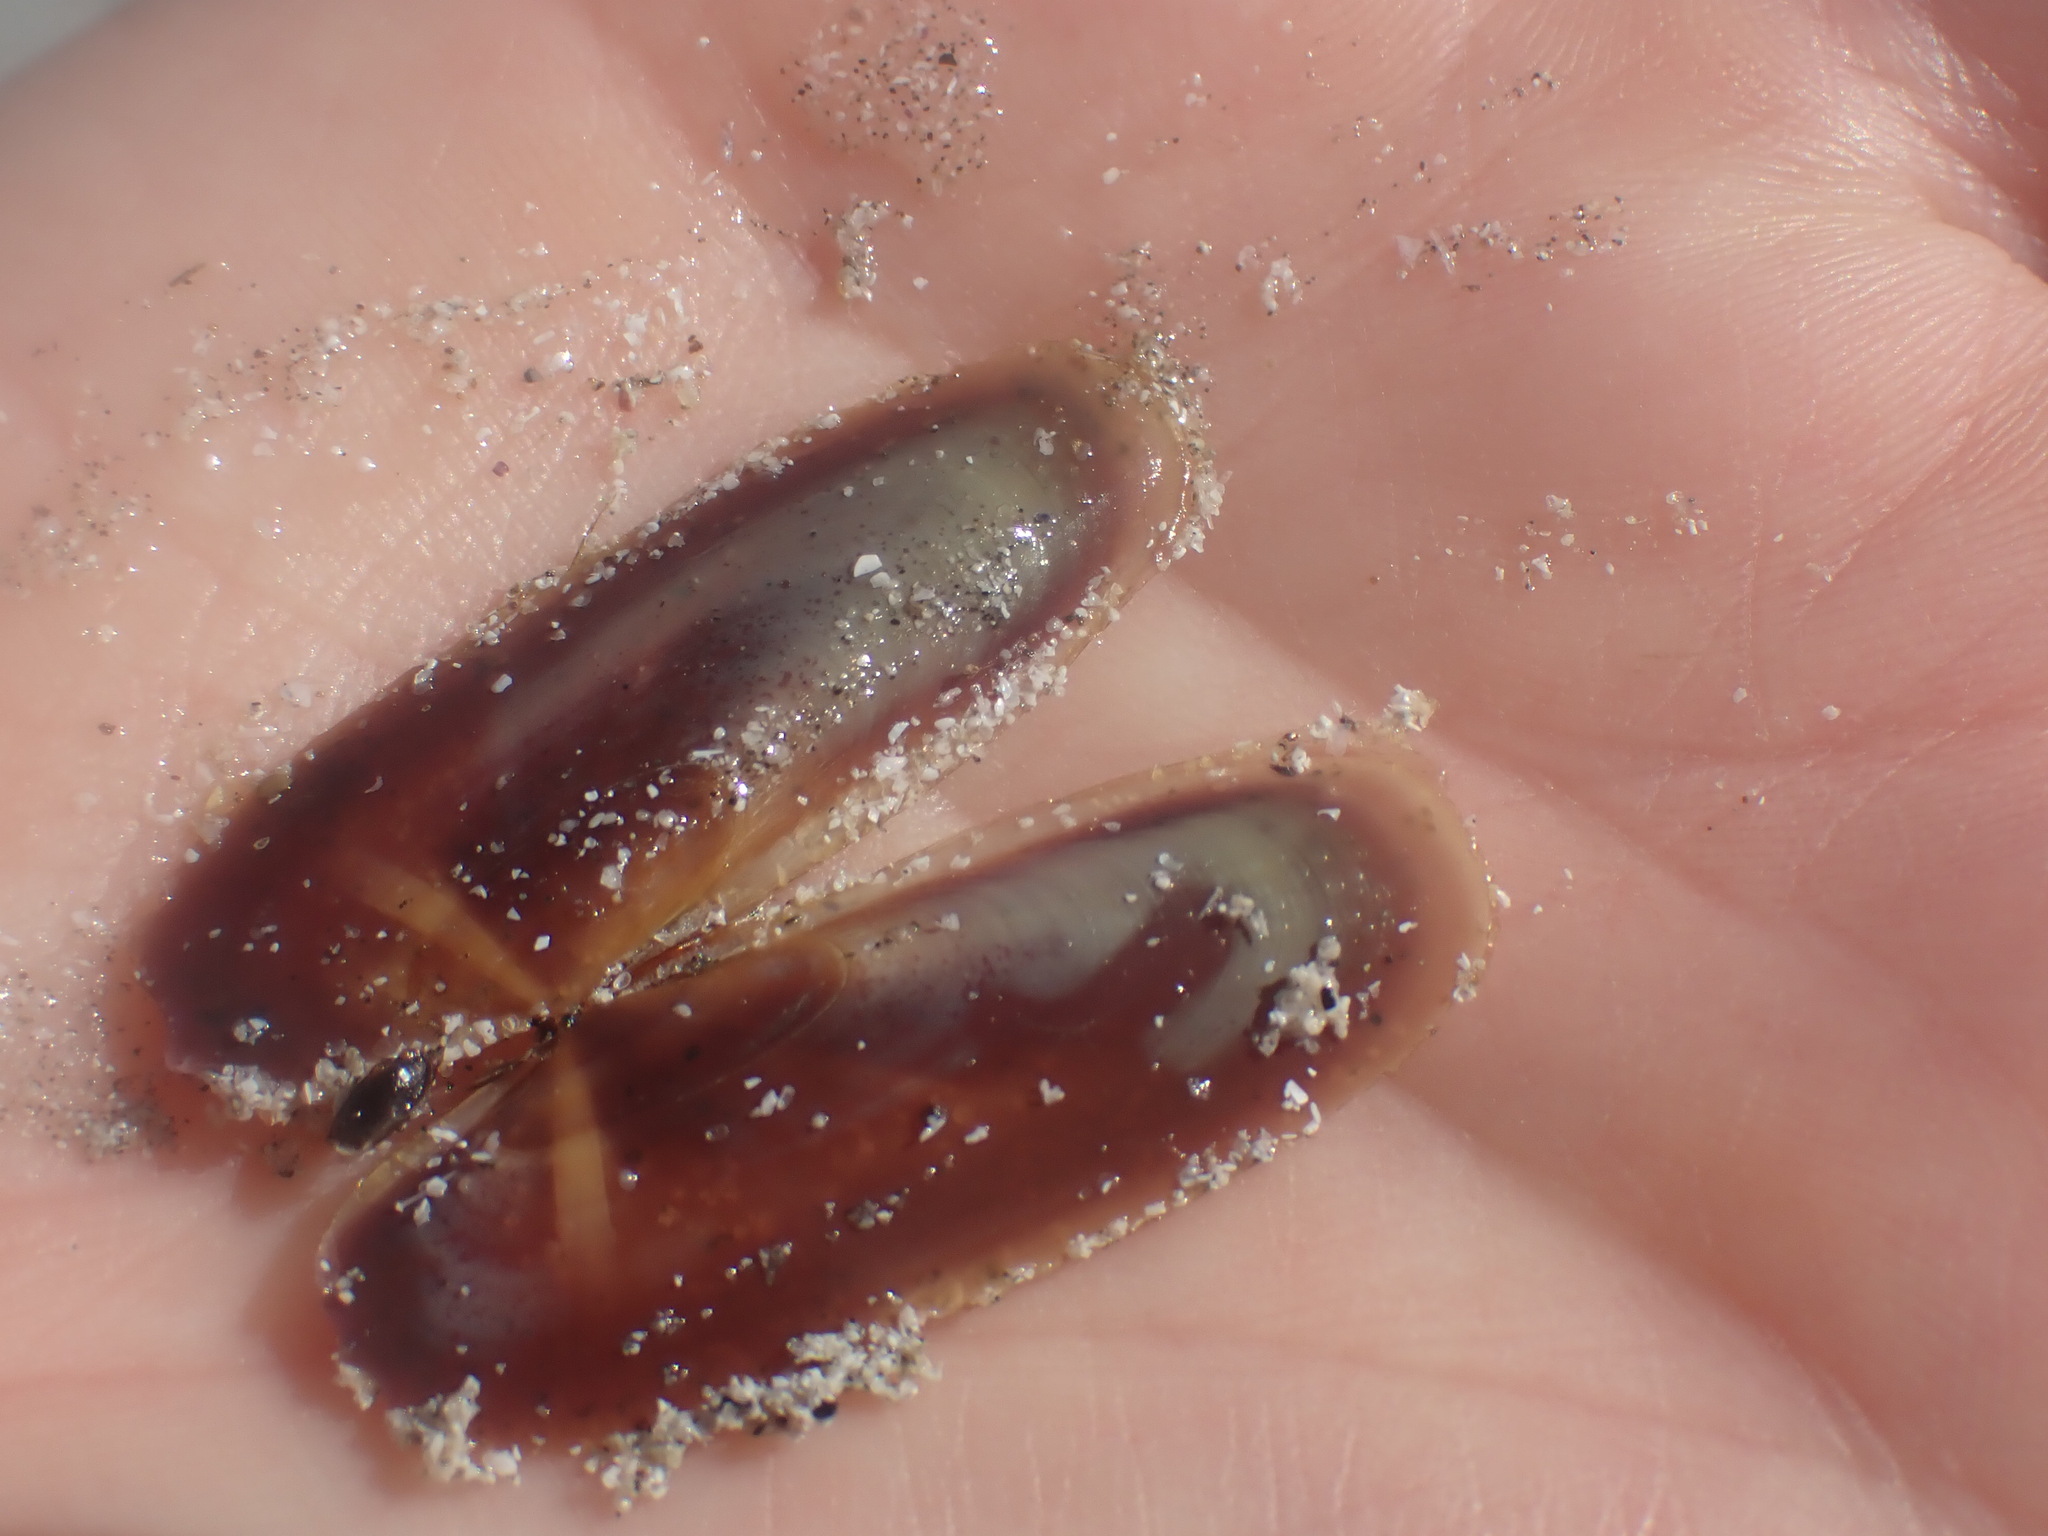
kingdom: Animalia
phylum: Mollusca
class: Bivalvia
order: Adapedonta
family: Pharidae
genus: Siliqua
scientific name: Siliqua patula
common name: Pacific razor clam
